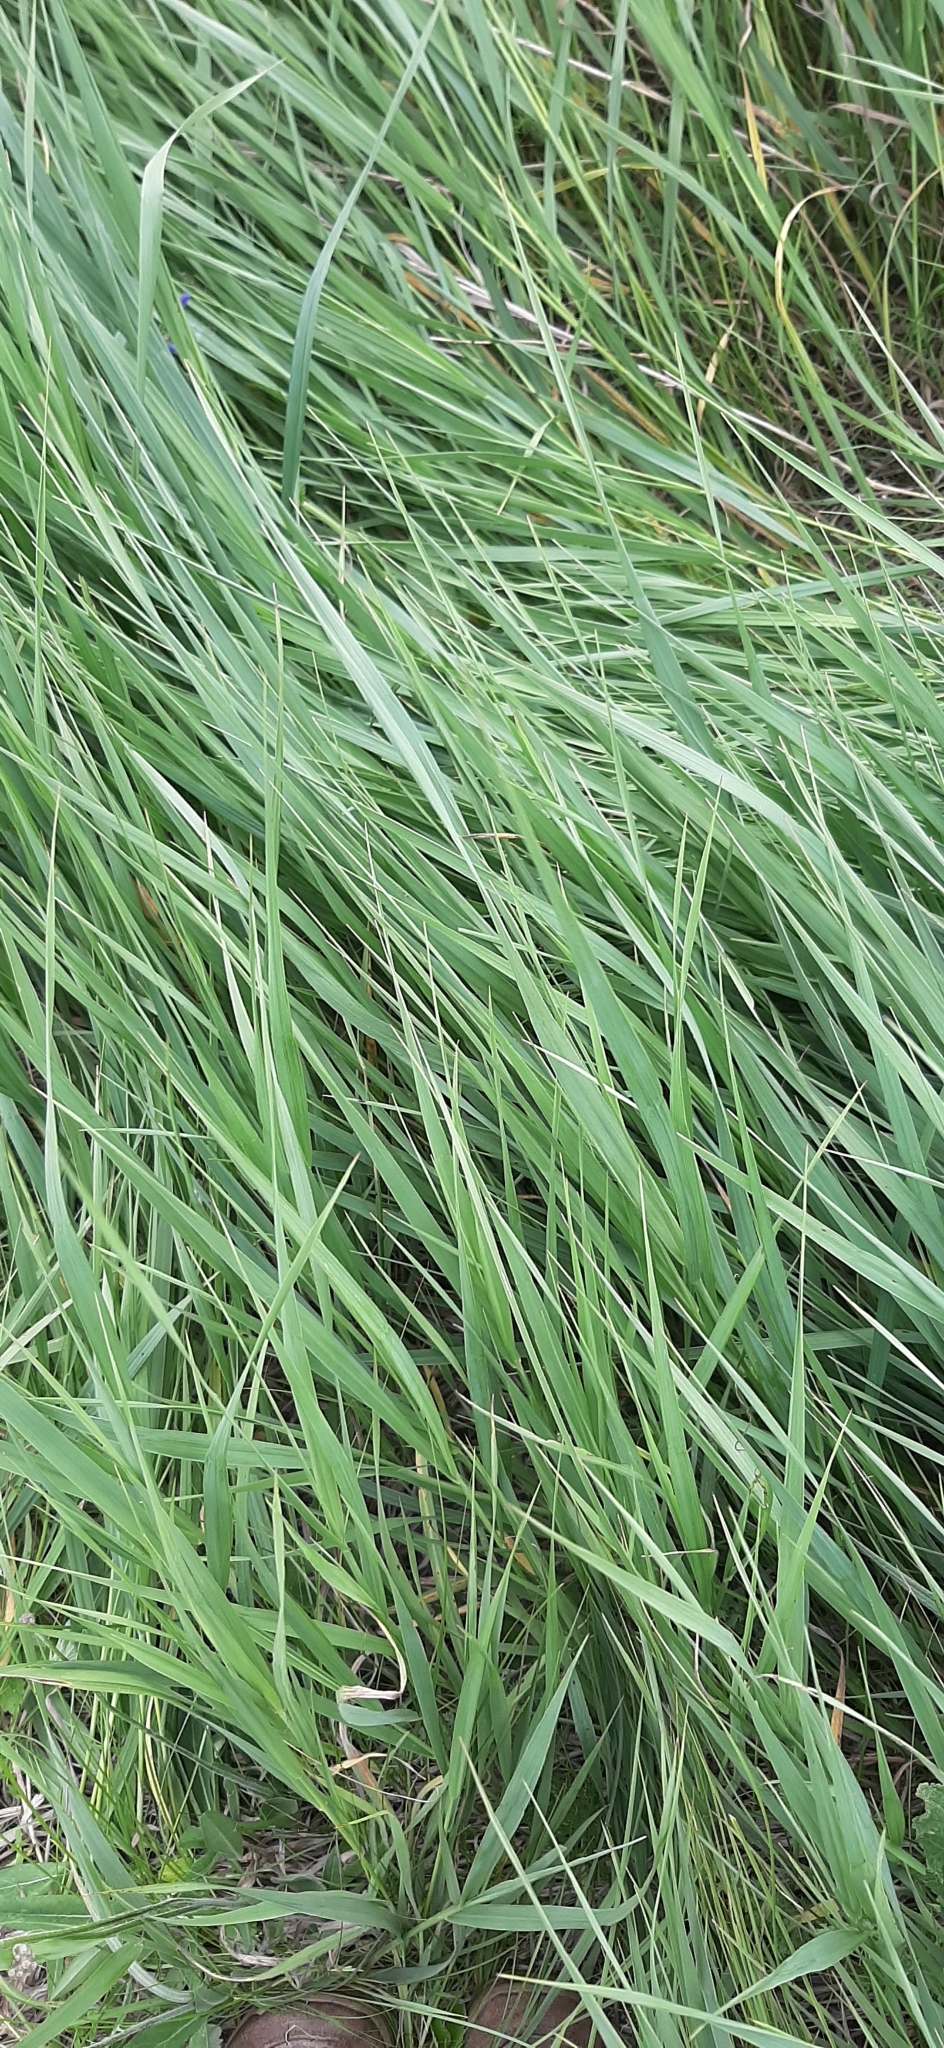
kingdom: Plantae
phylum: Tracheophyta
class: Liliopsida
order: Poales
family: Poaceae
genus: Calamagrostis
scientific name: Calamagrostis epigejos
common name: Wood small-reed
